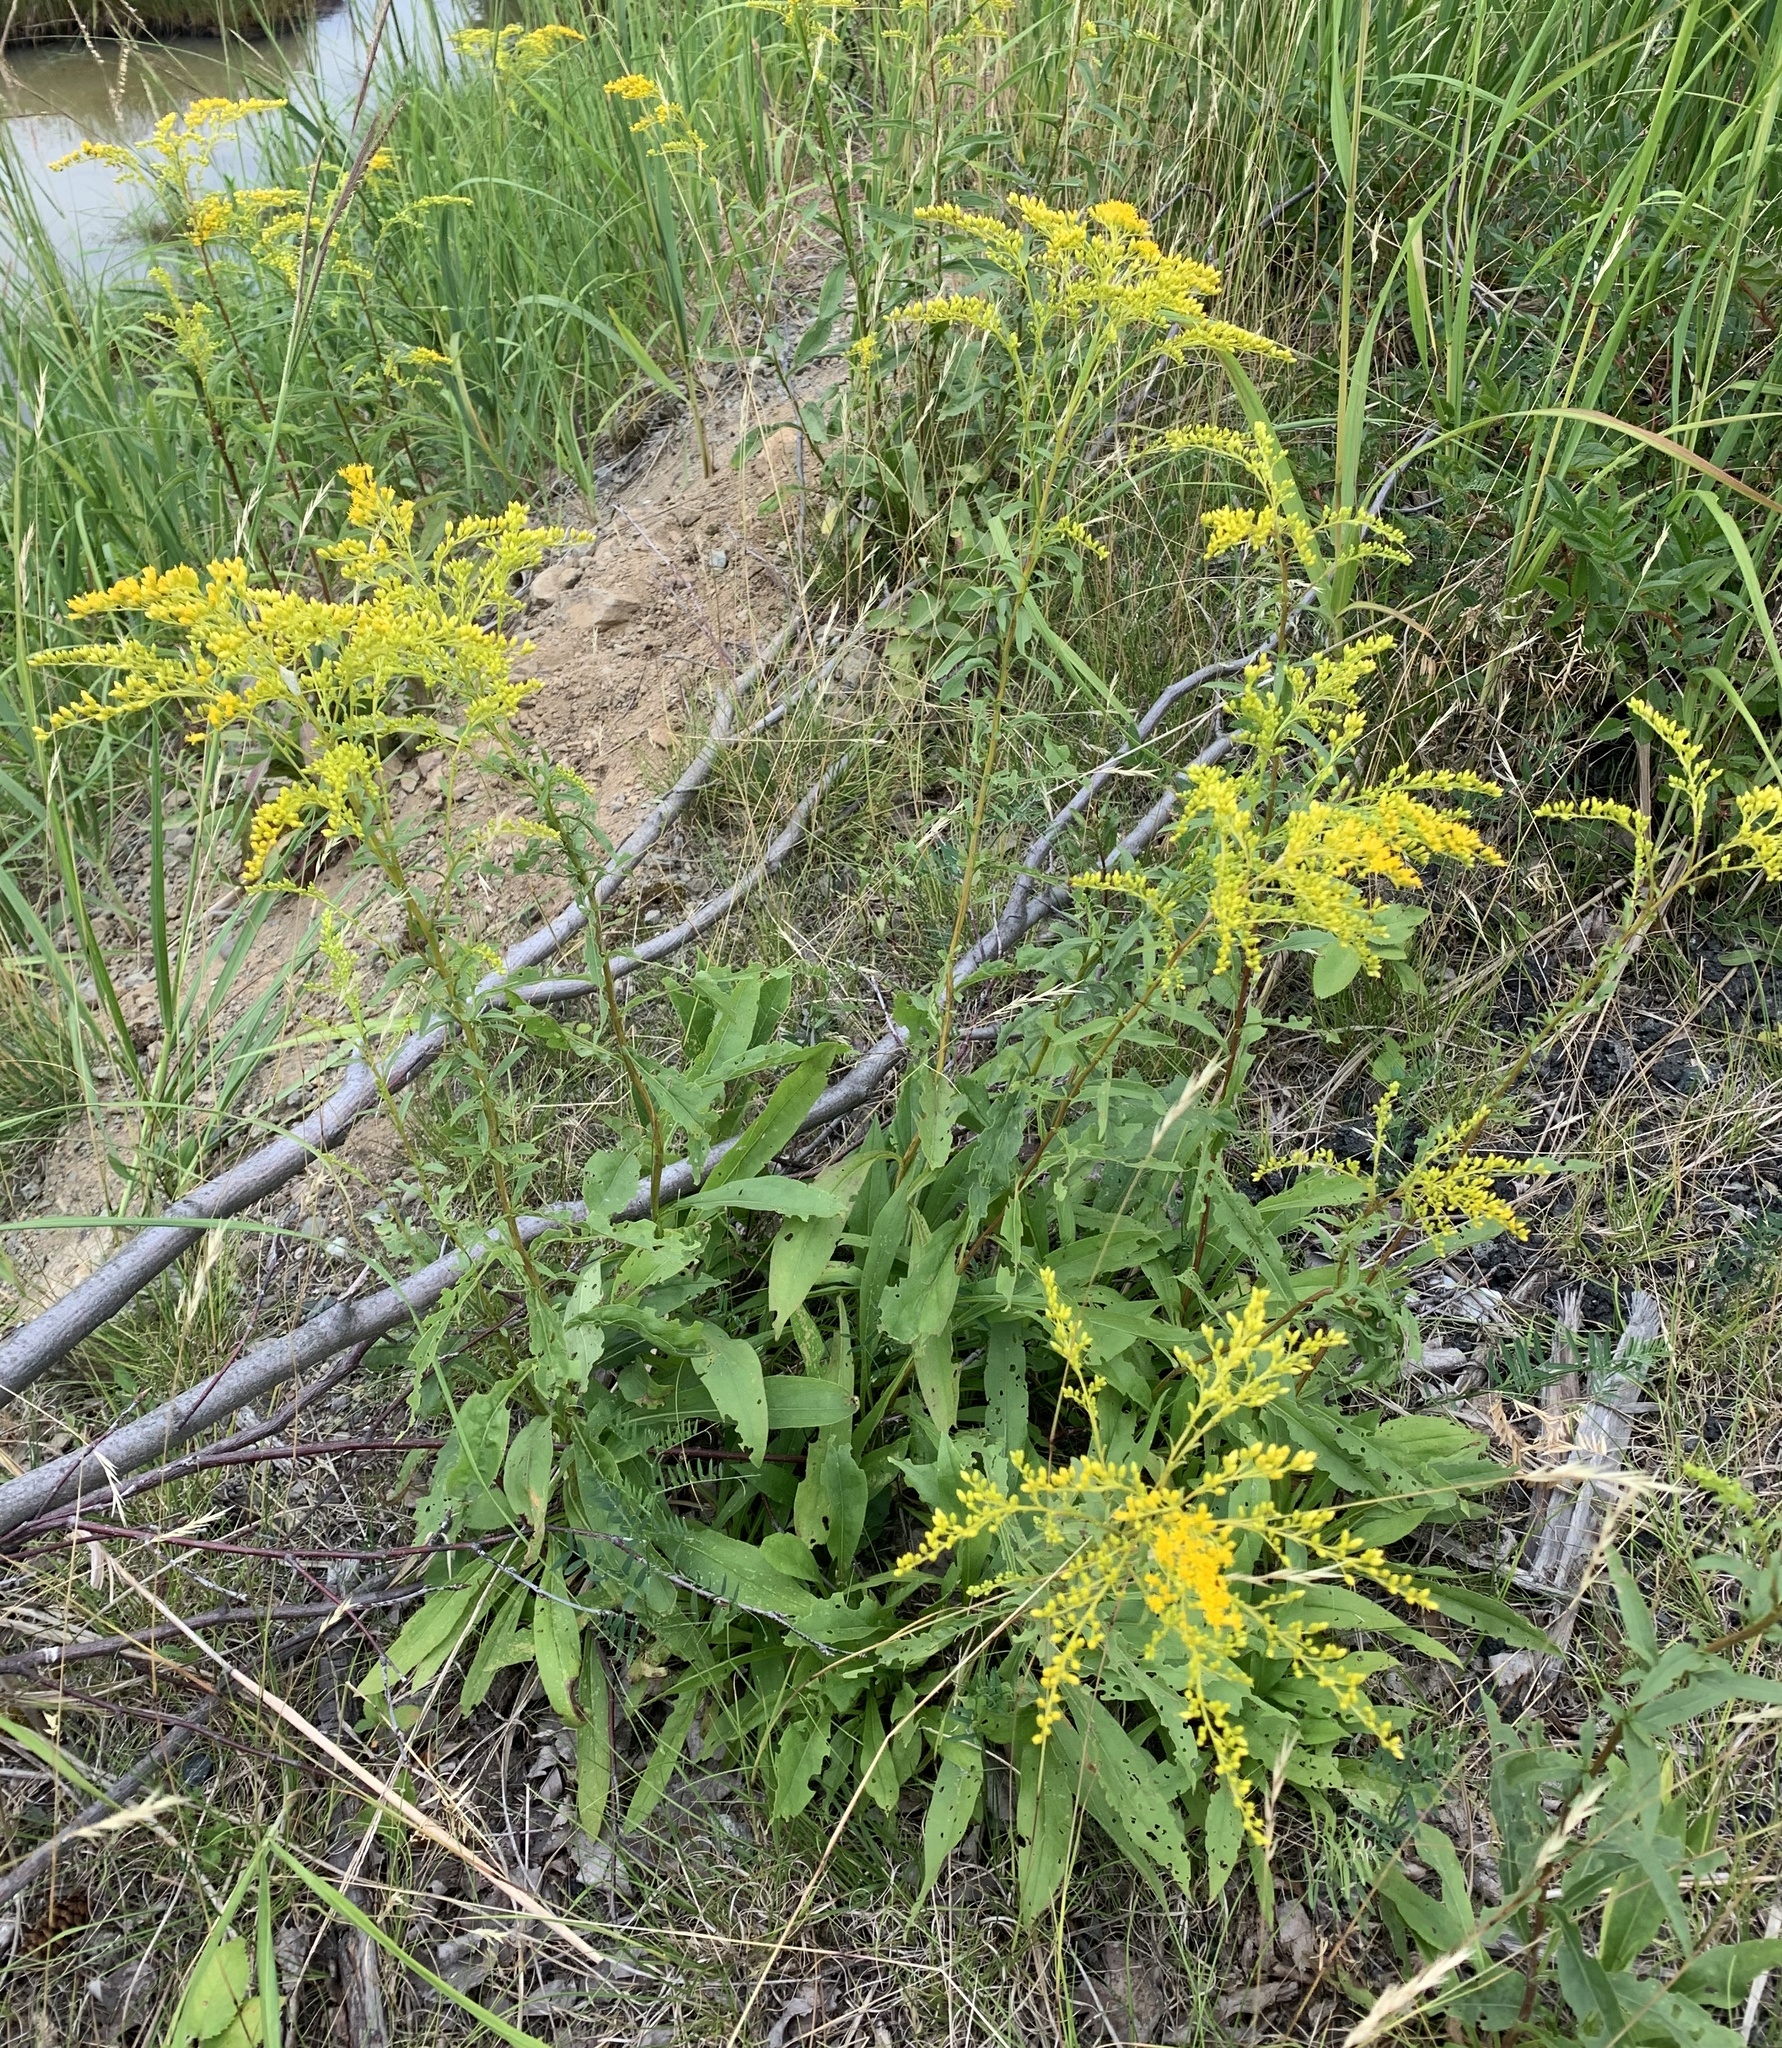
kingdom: Plantae
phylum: Tracheophyta
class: Magnoliopsida
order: Asterales
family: Asteraceae
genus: Solidago
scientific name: Solidago juncea
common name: Early goldenrod
